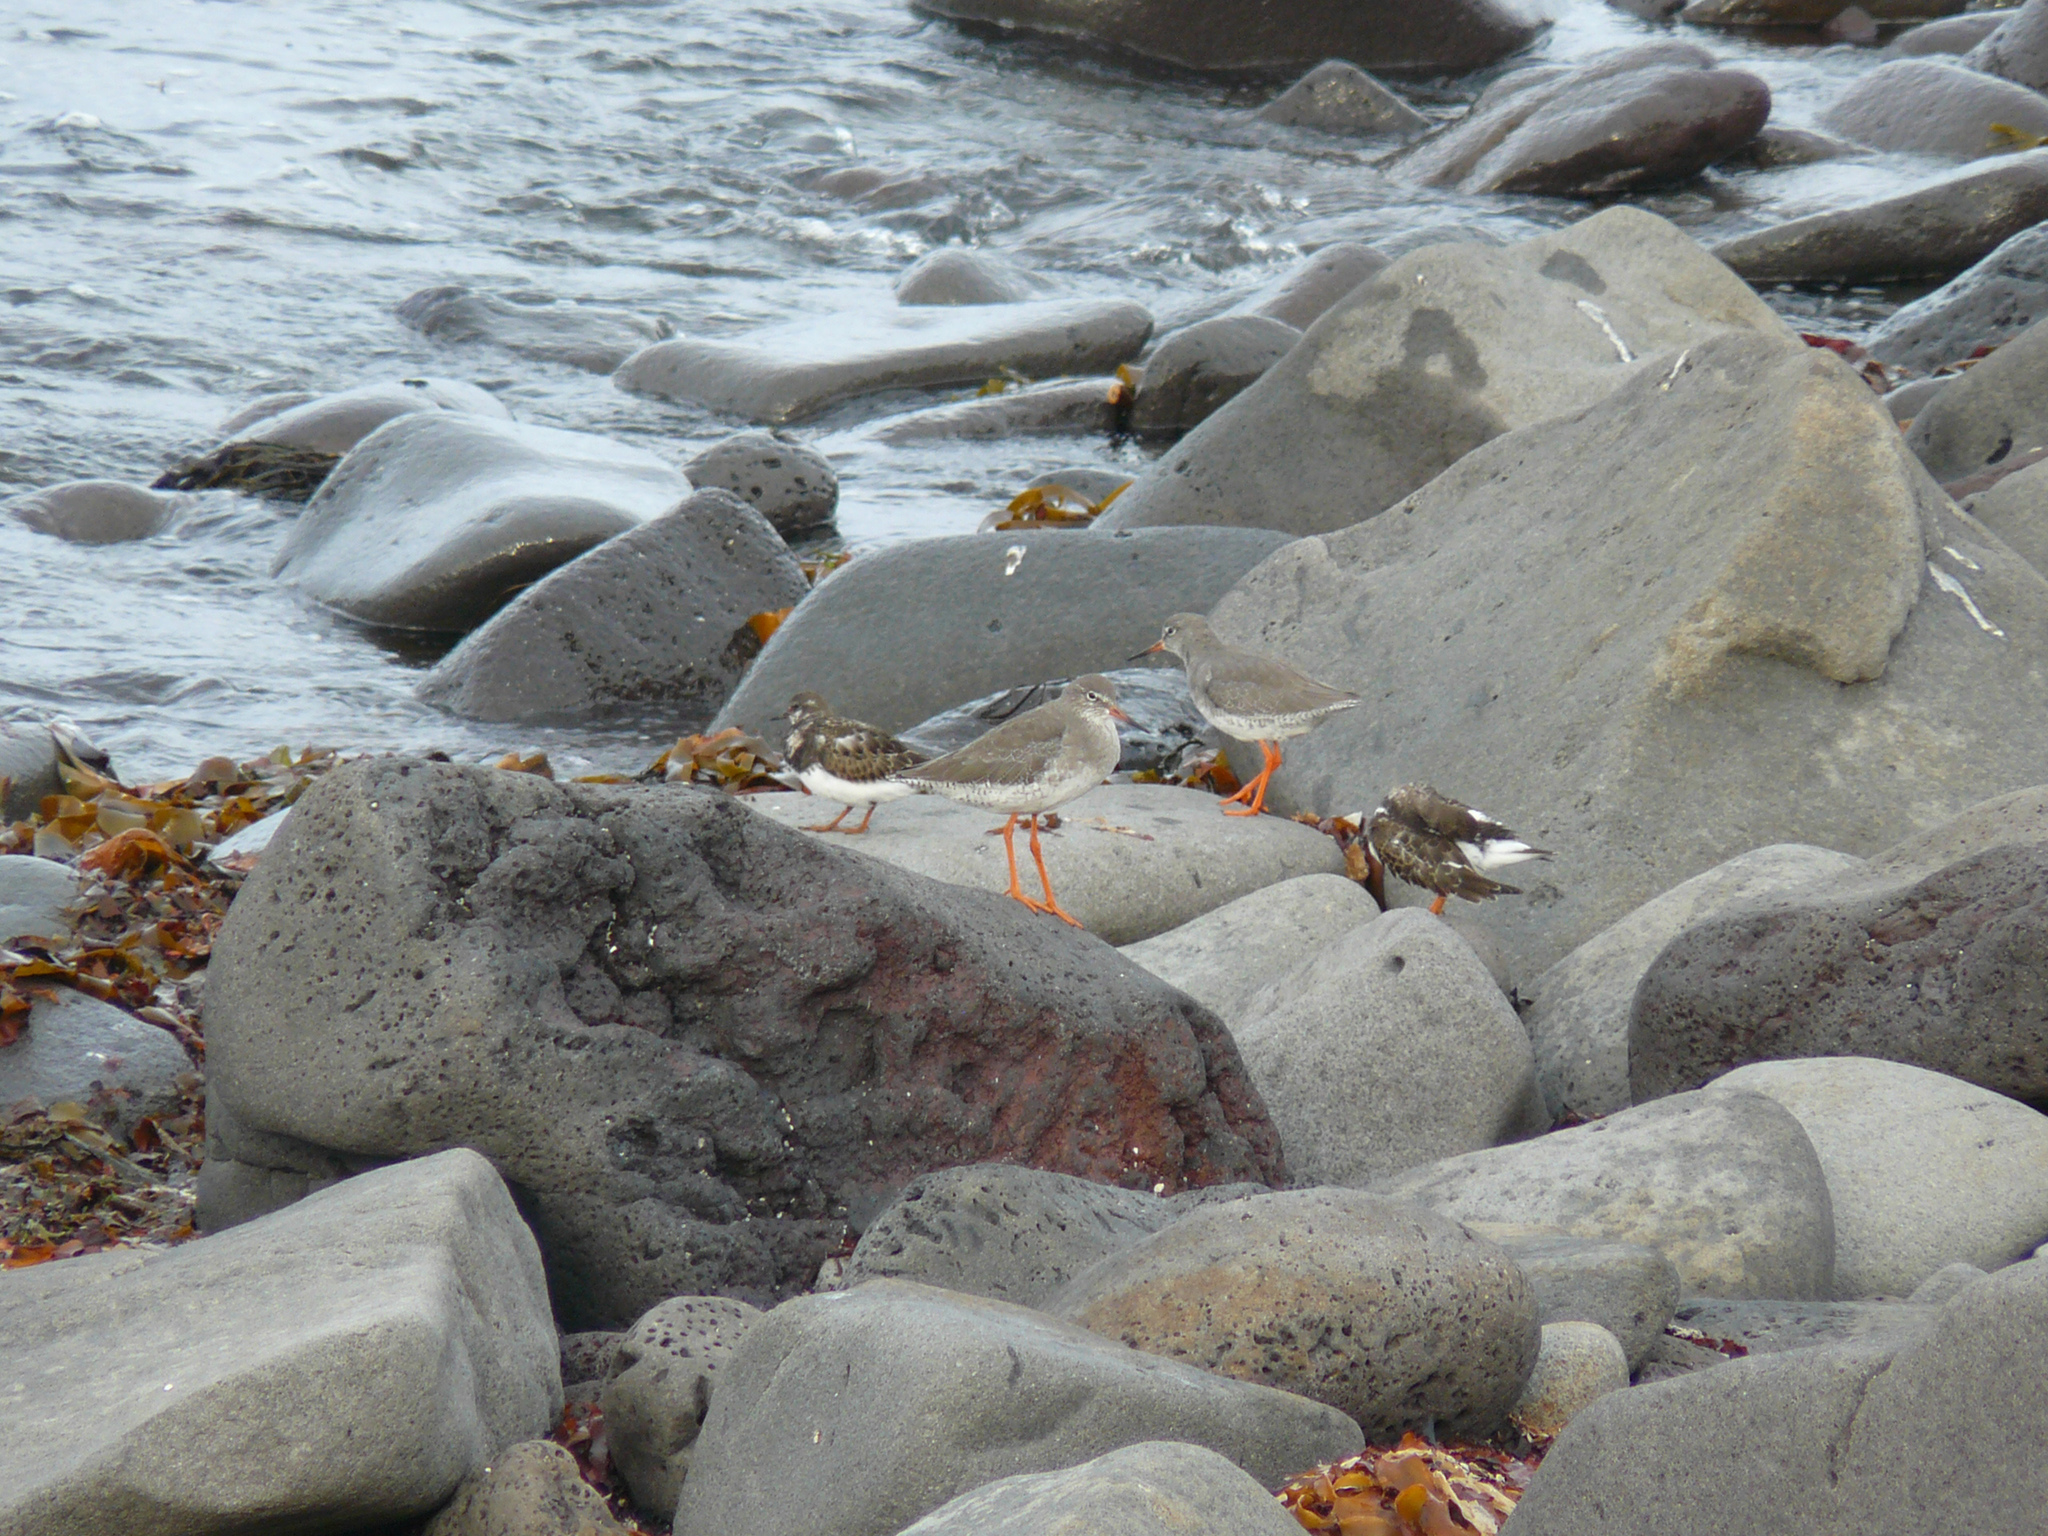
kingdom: Animalia
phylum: Chordata
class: Aves
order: Charadriiformes
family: Scolopacidae
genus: Tringa
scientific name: Tringa totanus
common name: Common redshank
